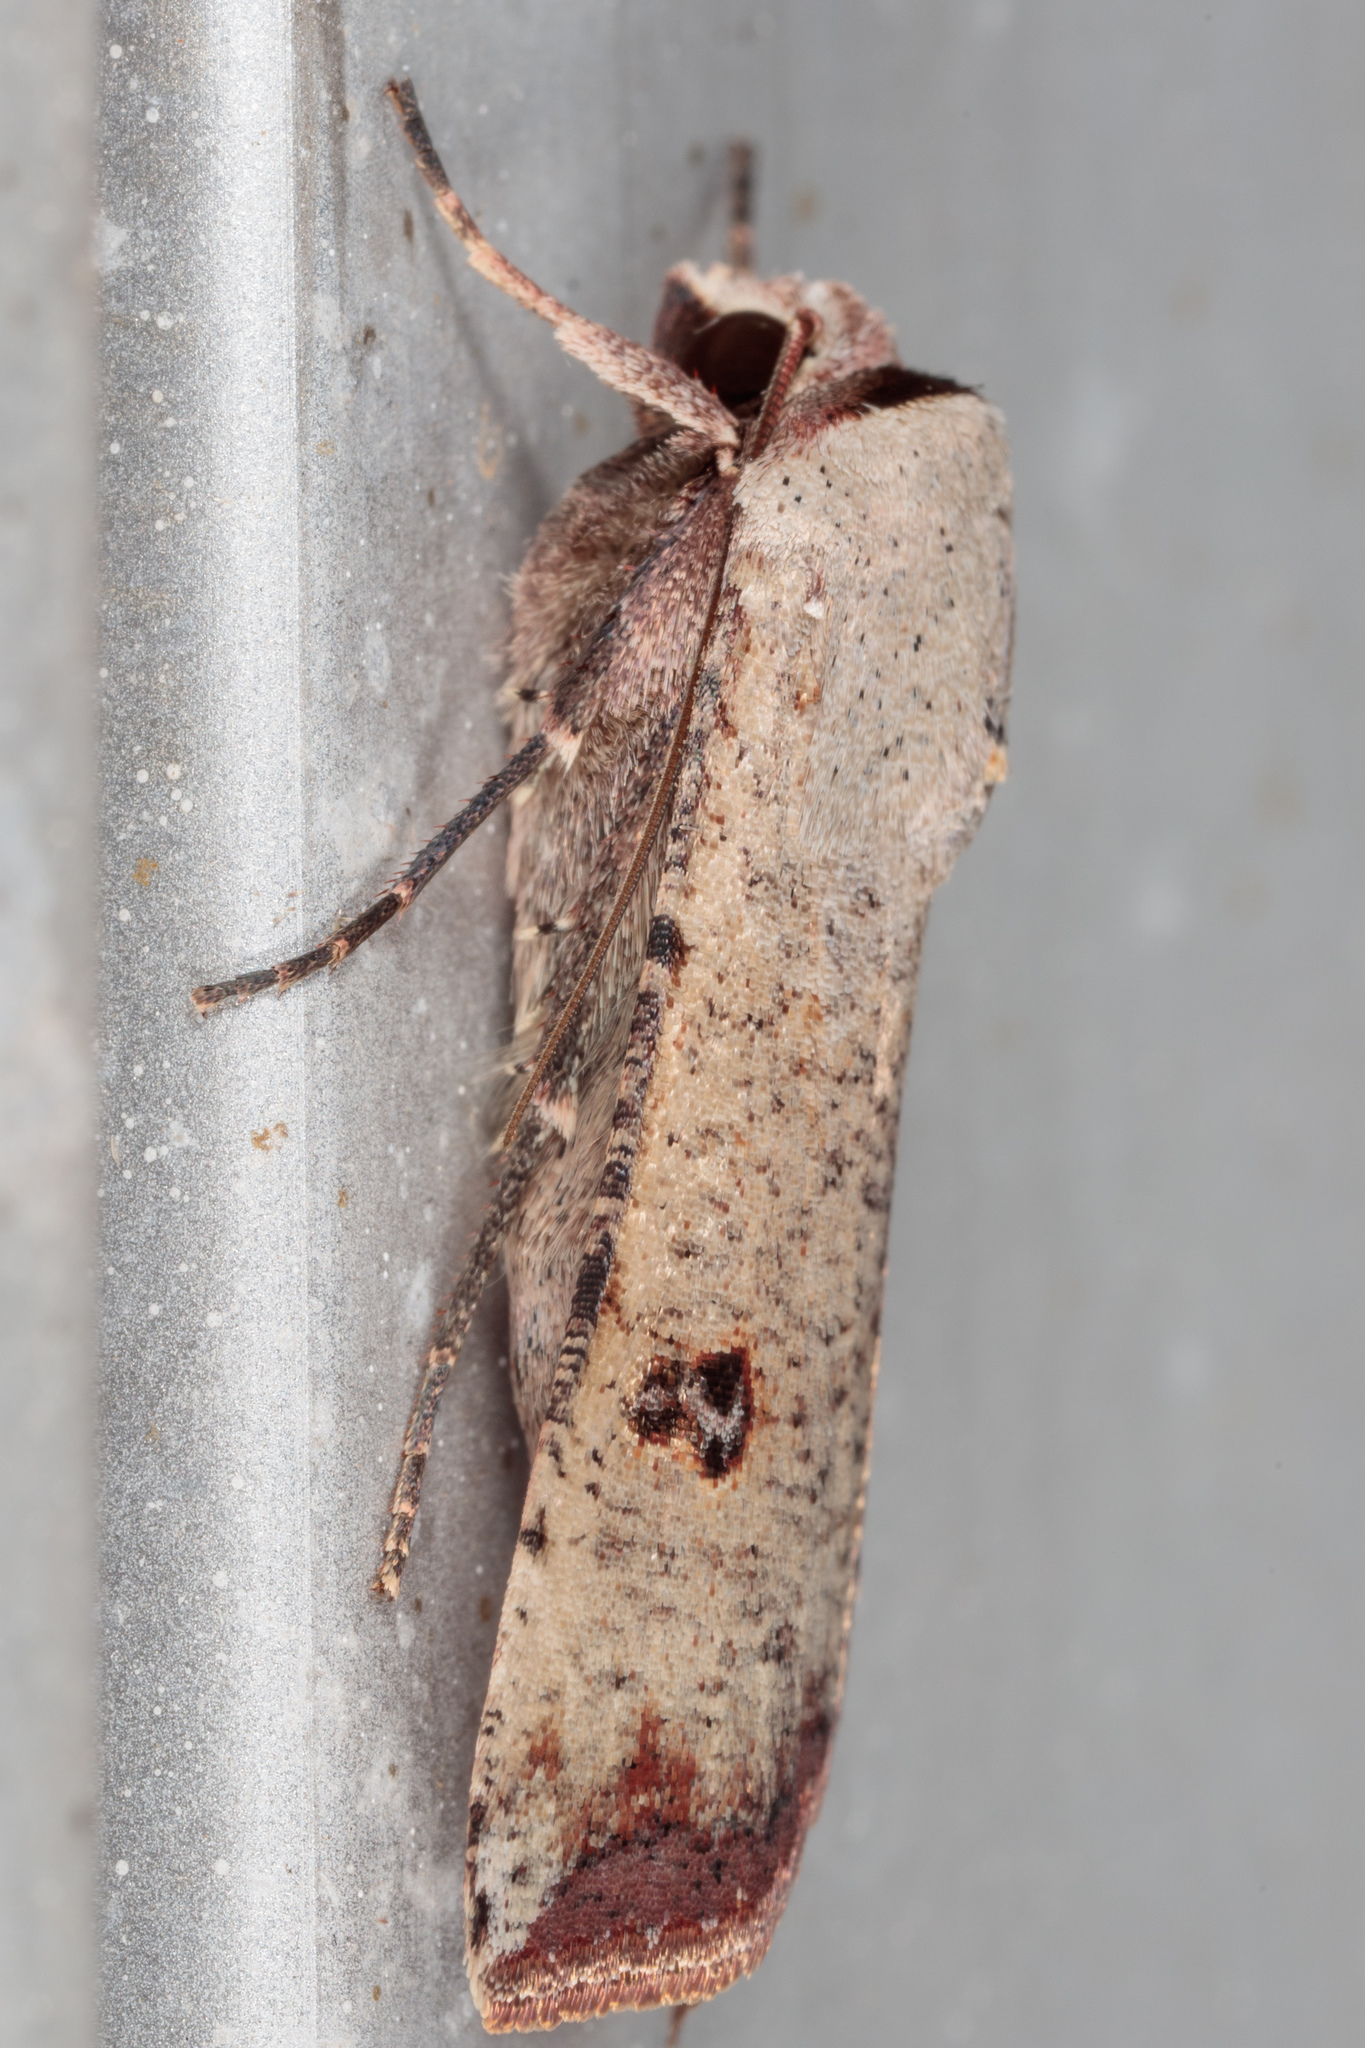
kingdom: Animalia
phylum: Arthropoda
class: Insecta
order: Lepidoptera
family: Noctuidae
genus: Anicla
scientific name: Anicla infecta
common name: Green cutworm
